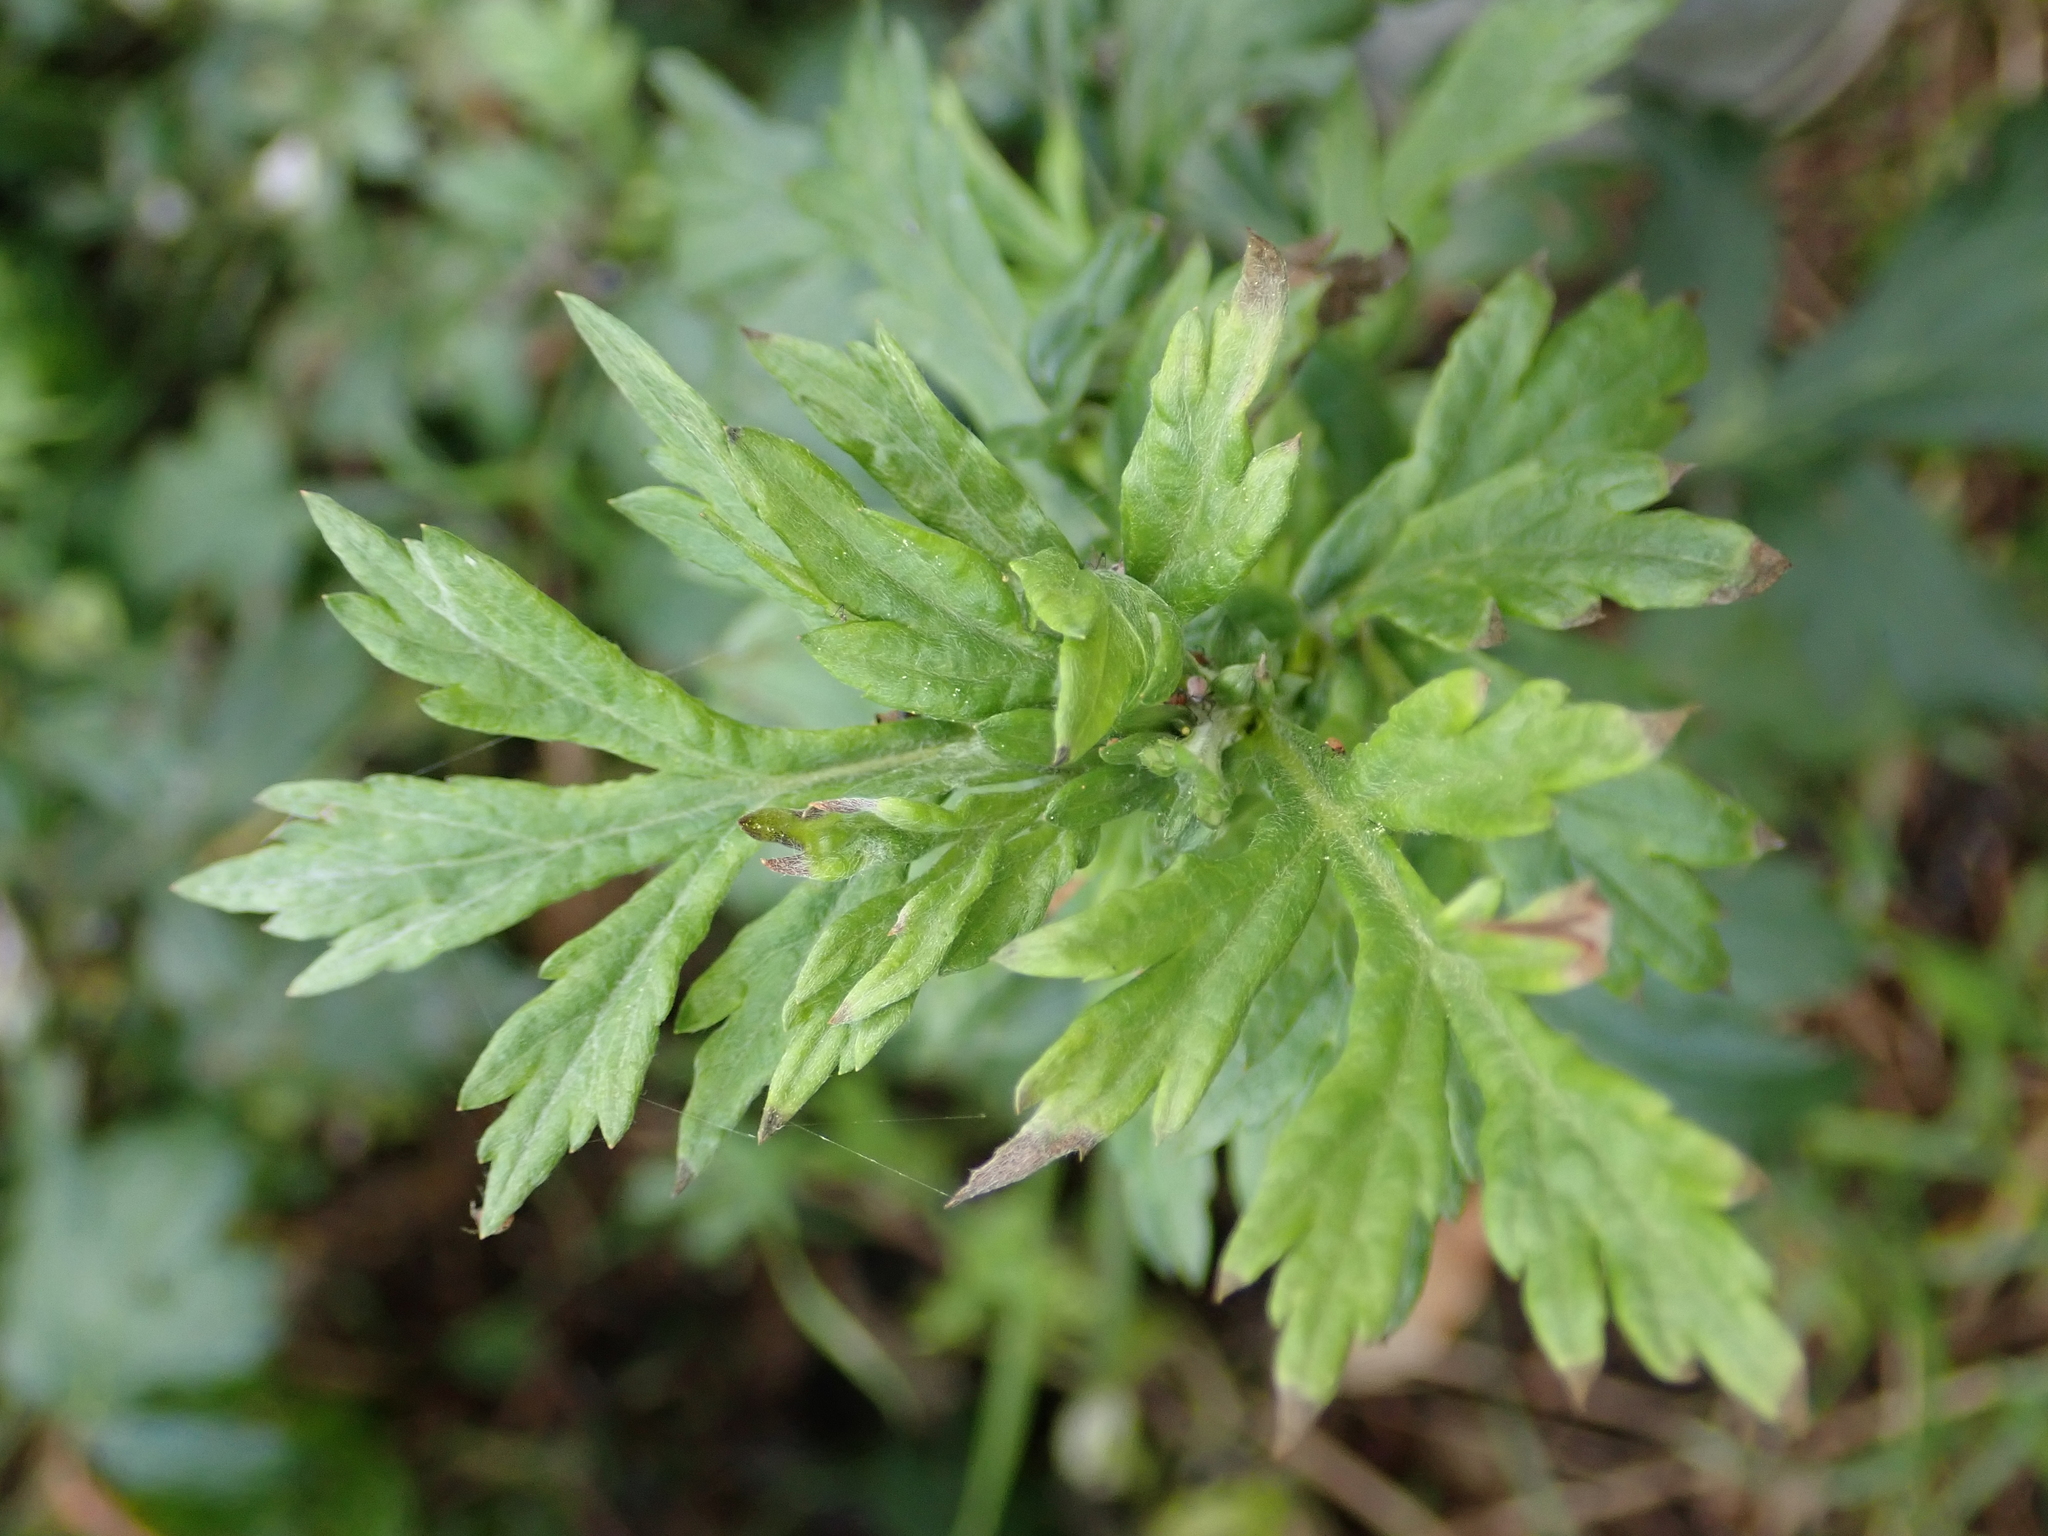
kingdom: Plantae
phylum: Tracheophyta
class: Magnoliopsida
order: Asterales
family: Asteraceae
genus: Artemisia
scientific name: Artemisia vulgaris
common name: Mugwort
